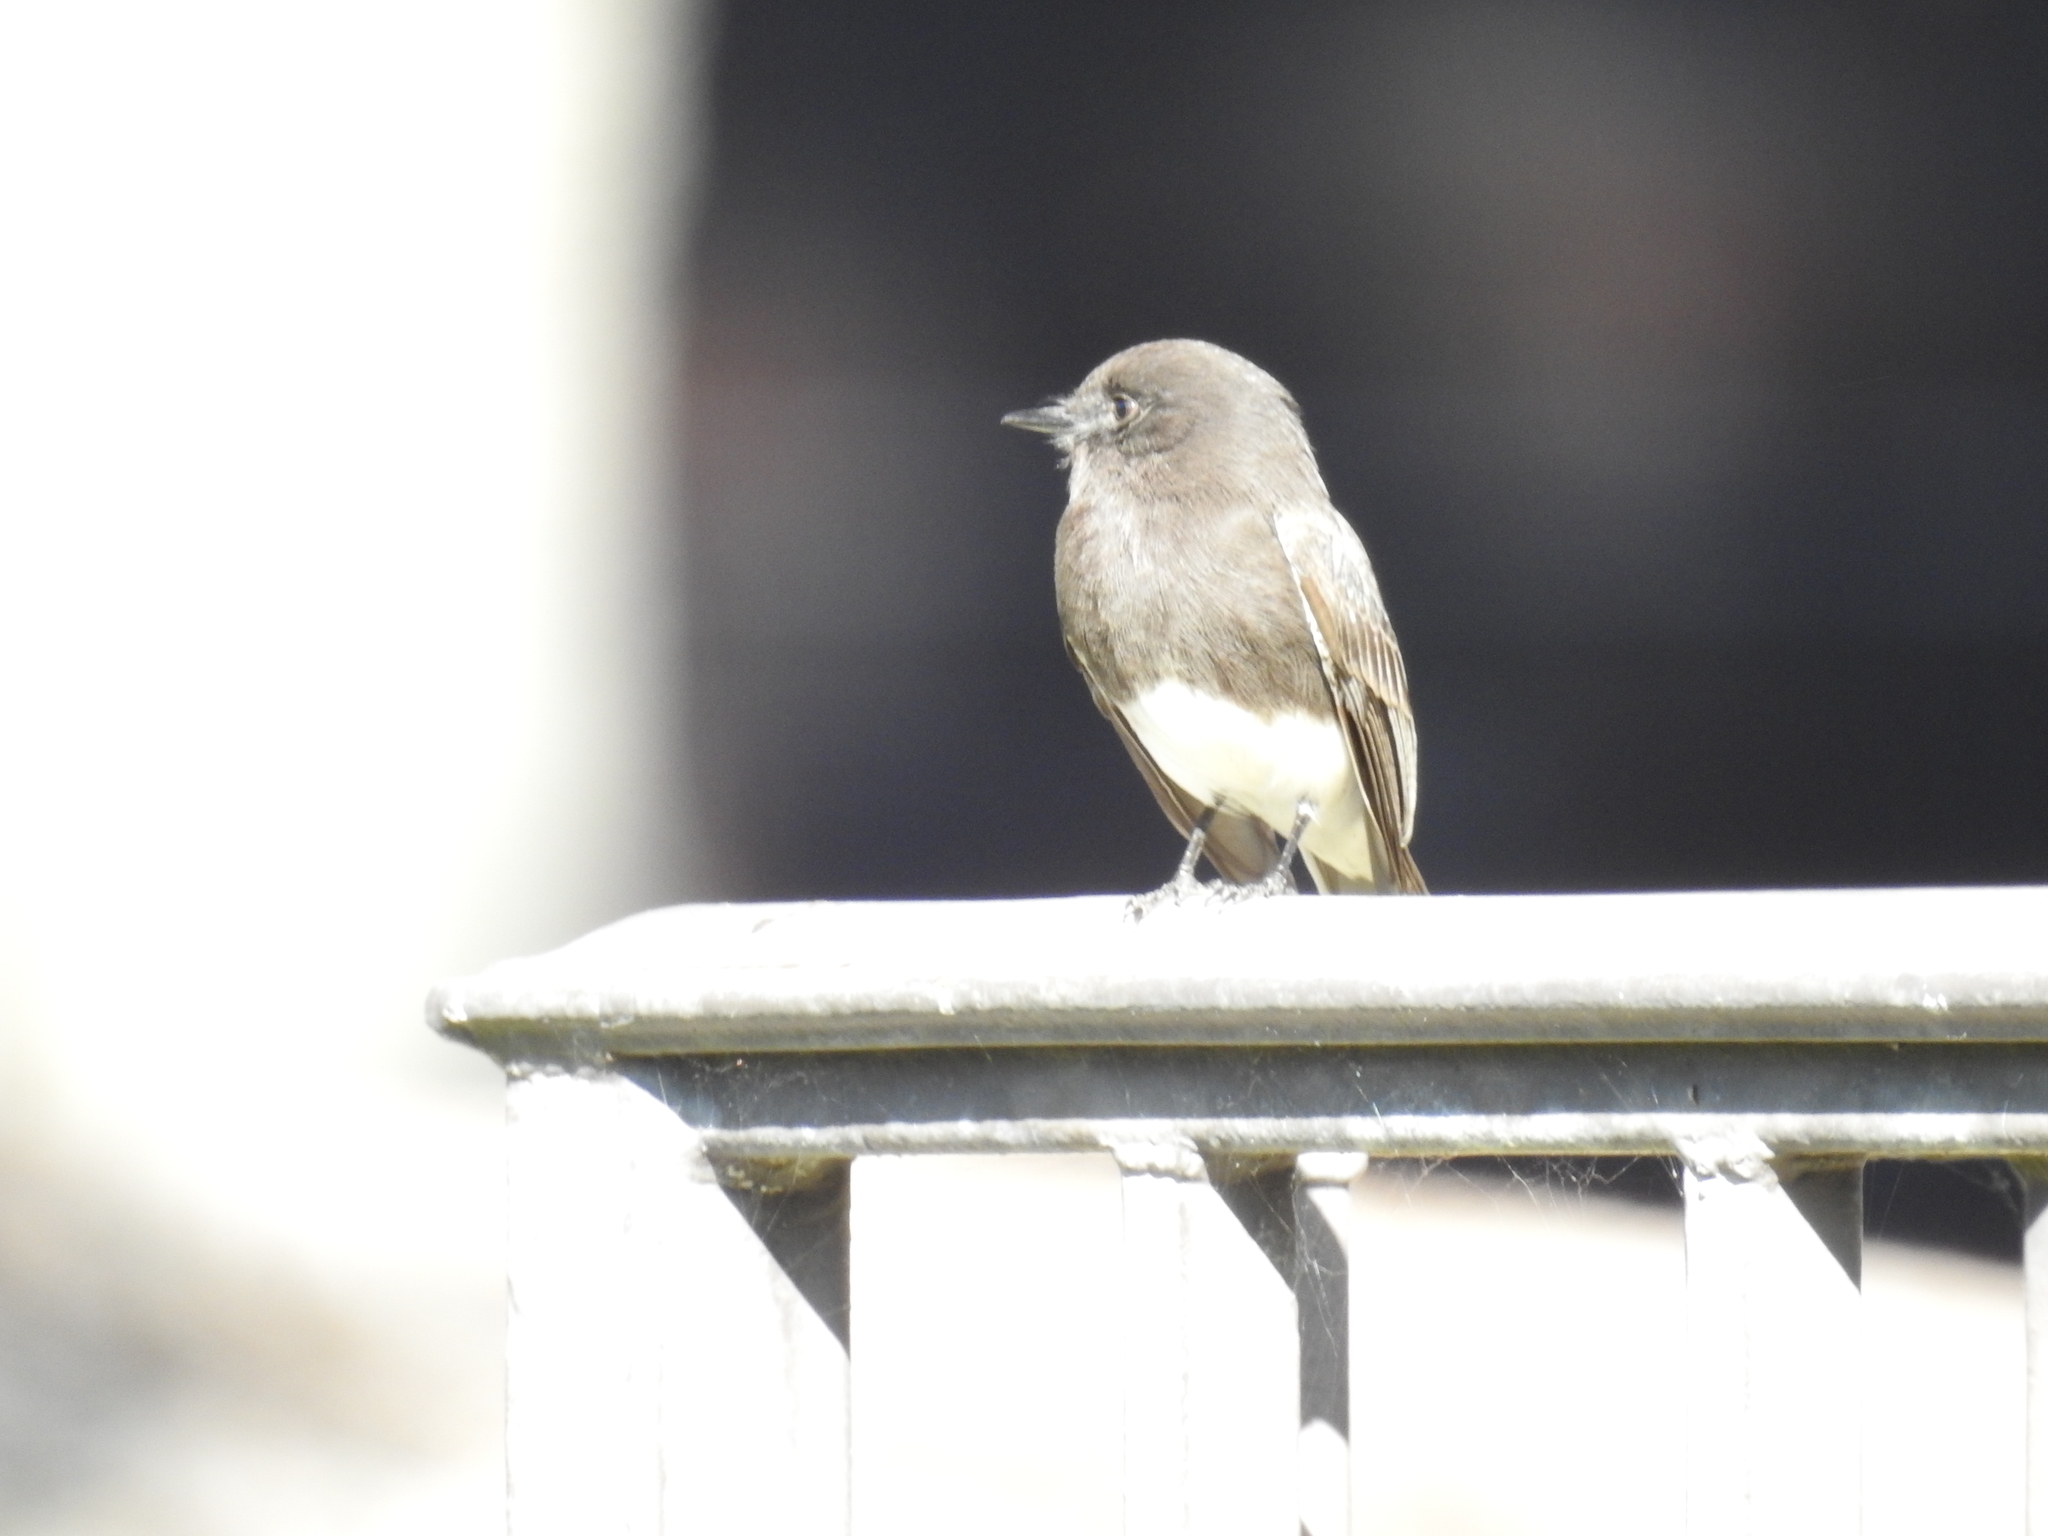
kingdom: Animalia
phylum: Chordata
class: Aves
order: Passeriformes
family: Tyrannidae
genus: Sayornis
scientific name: Sayornis nigricans
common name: Black phoebe
